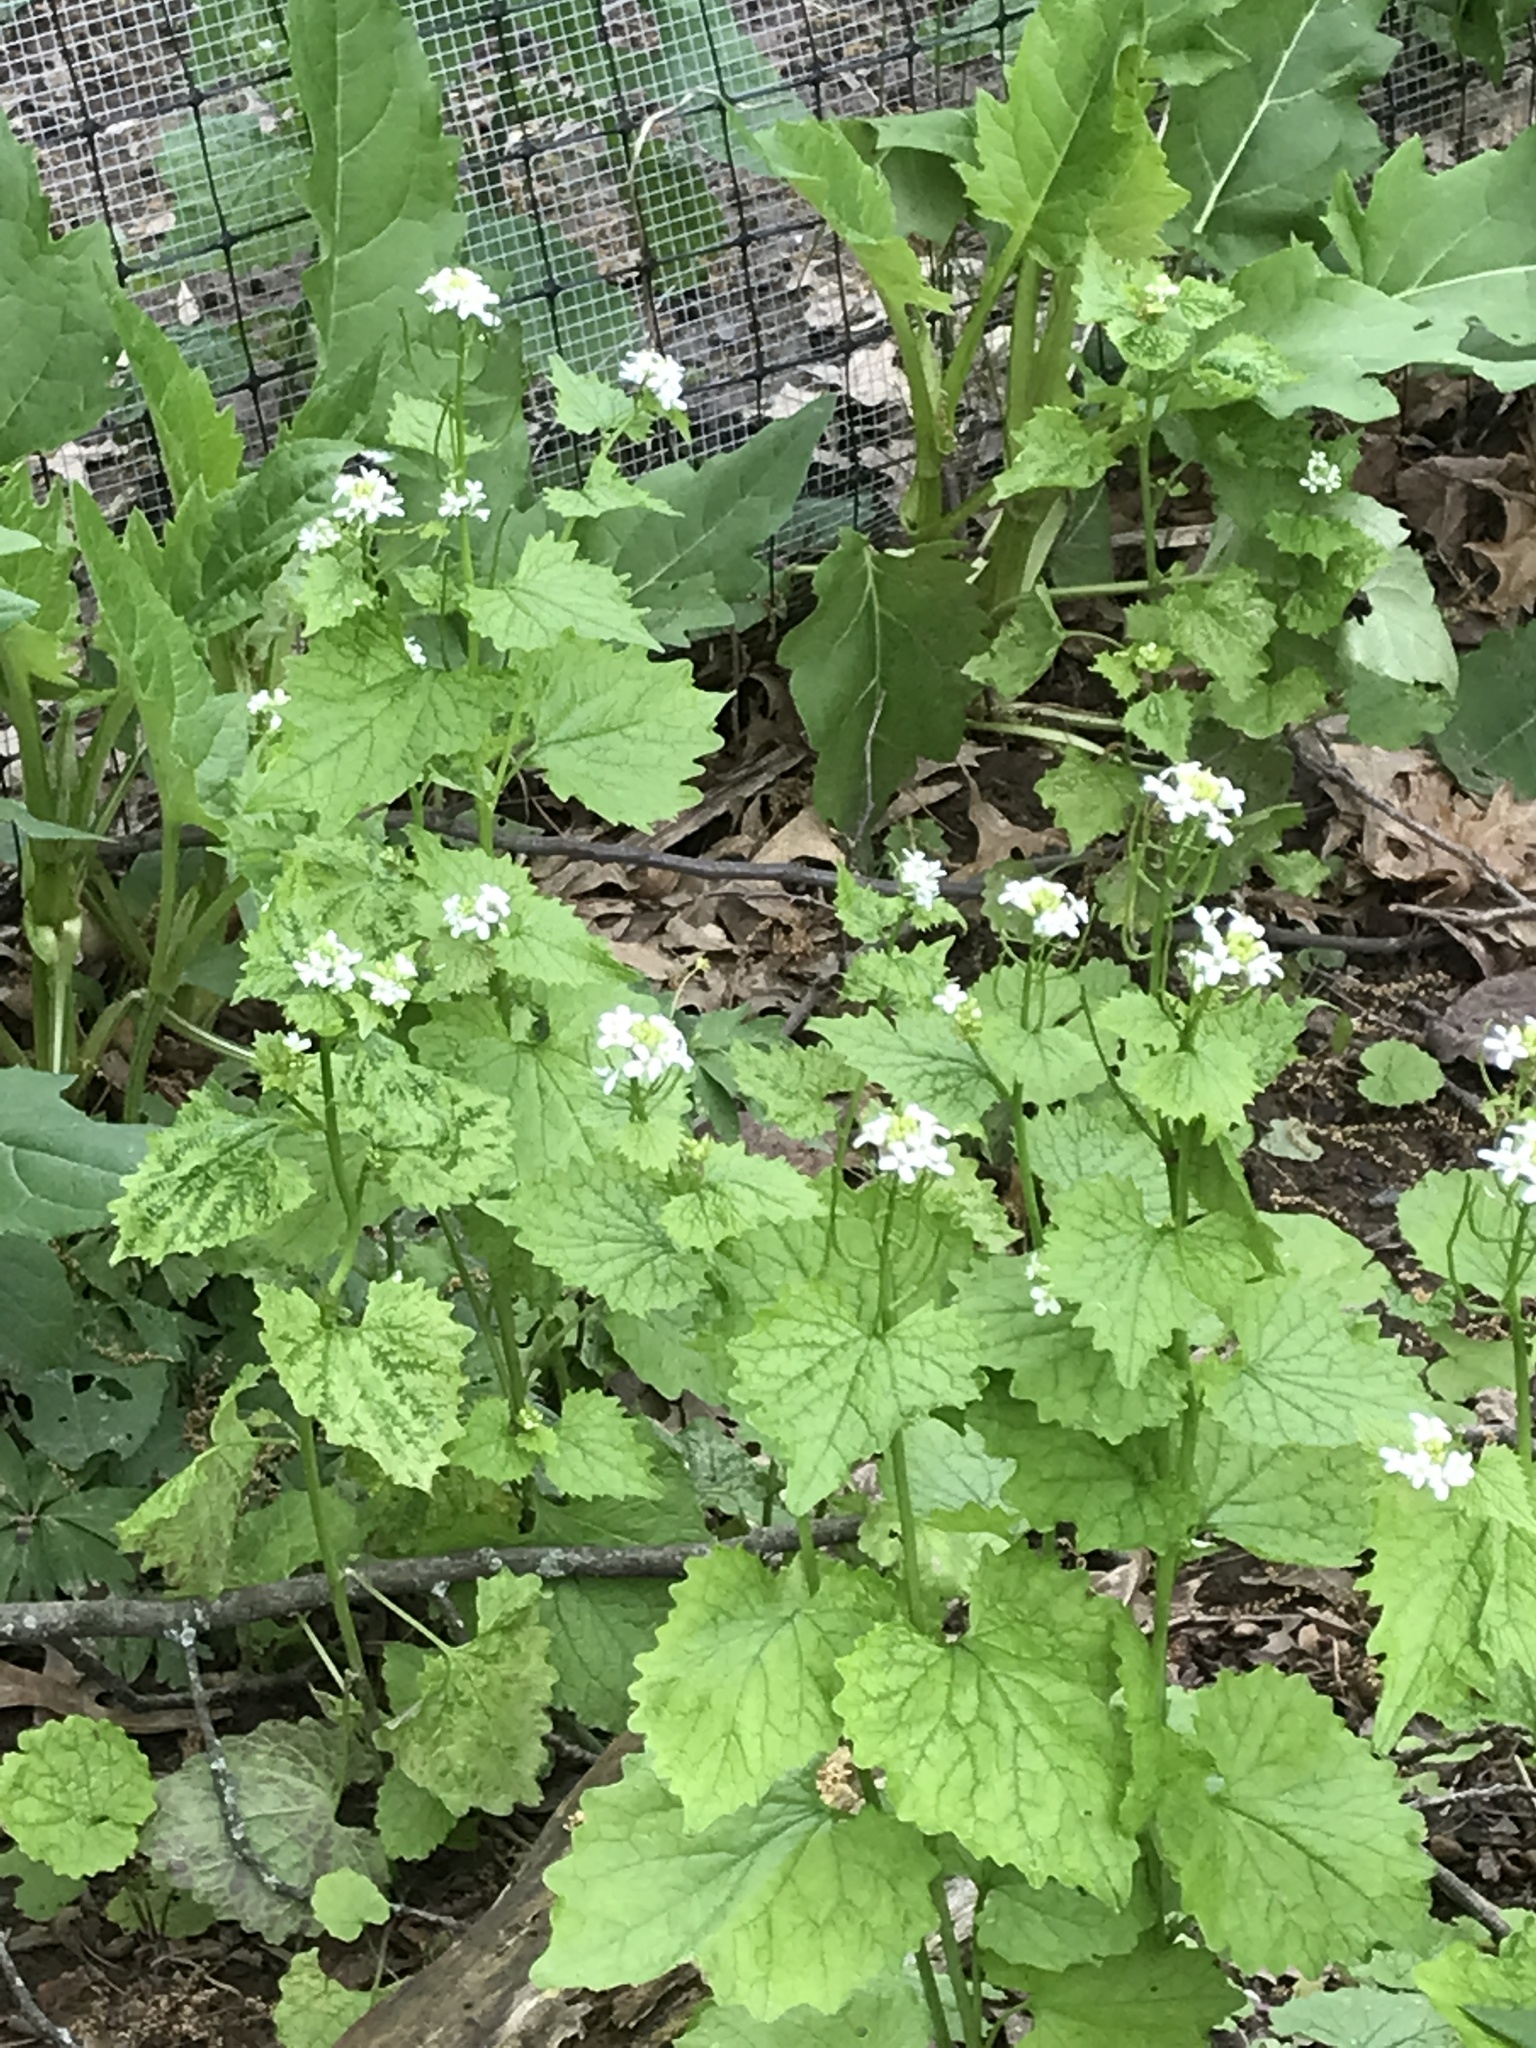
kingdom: Plantae
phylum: Tracheophyta
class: Magnoliopsida
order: Brassicales
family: Brassicaceae
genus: Alliaria
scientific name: Alliaria petiolata
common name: Garlic mustard
